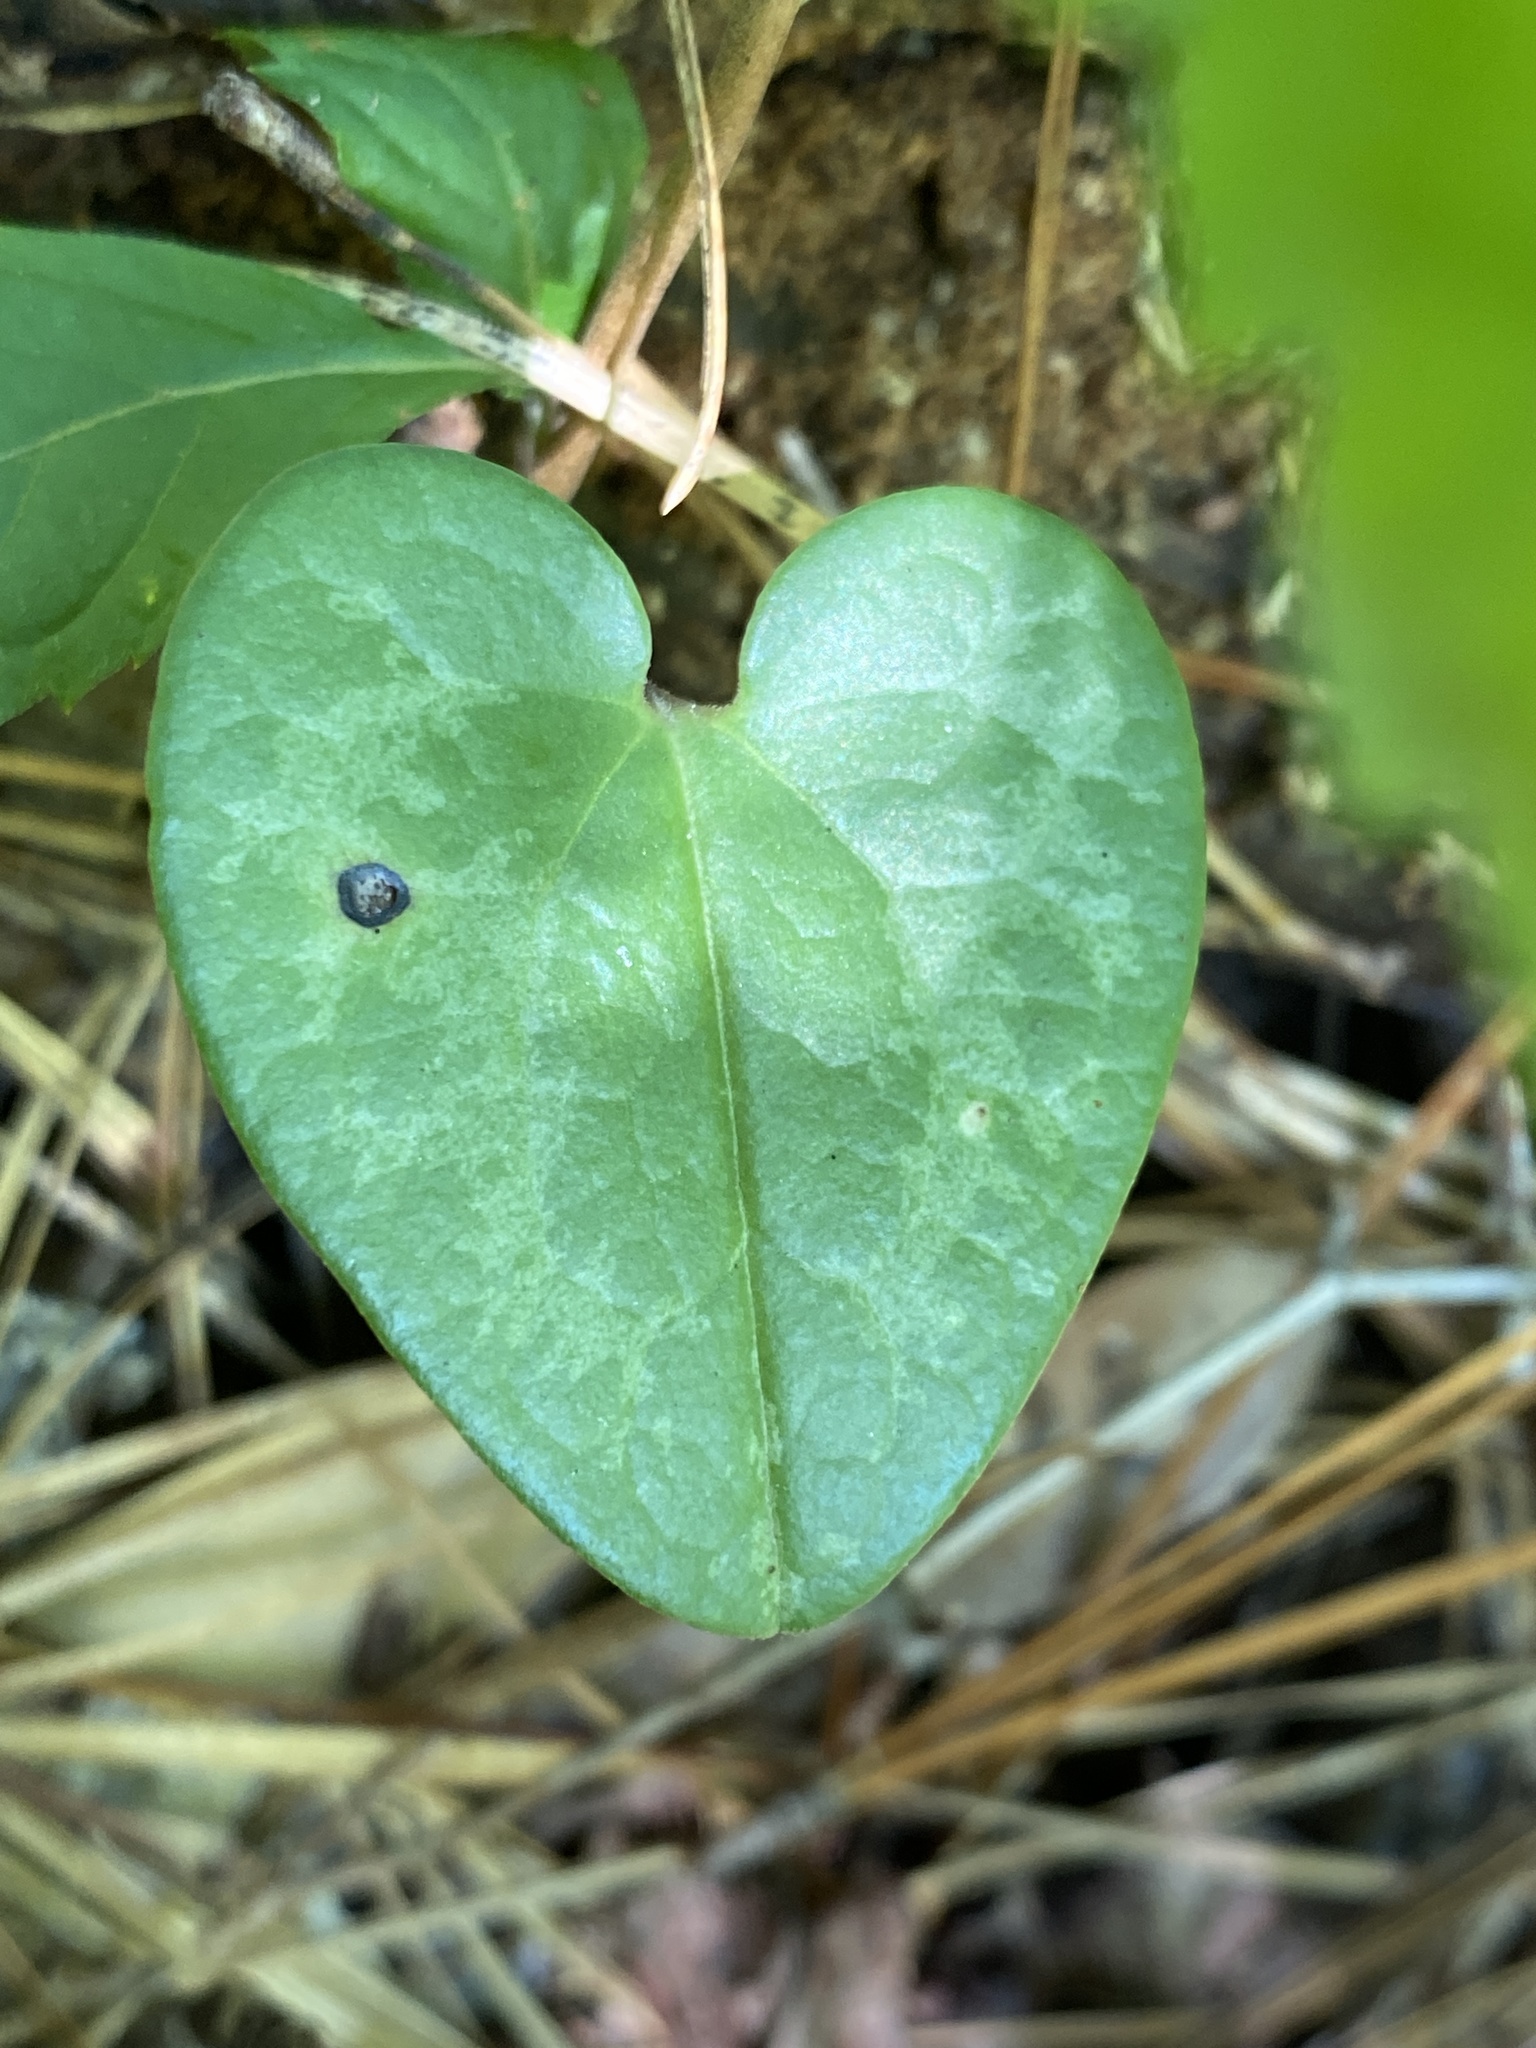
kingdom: Plantae
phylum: Tracheophyta
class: Magnoliopsida
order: Piperales
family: Aristolochiaceae
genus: Hexastylis
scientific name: Hexastylis sorriei
